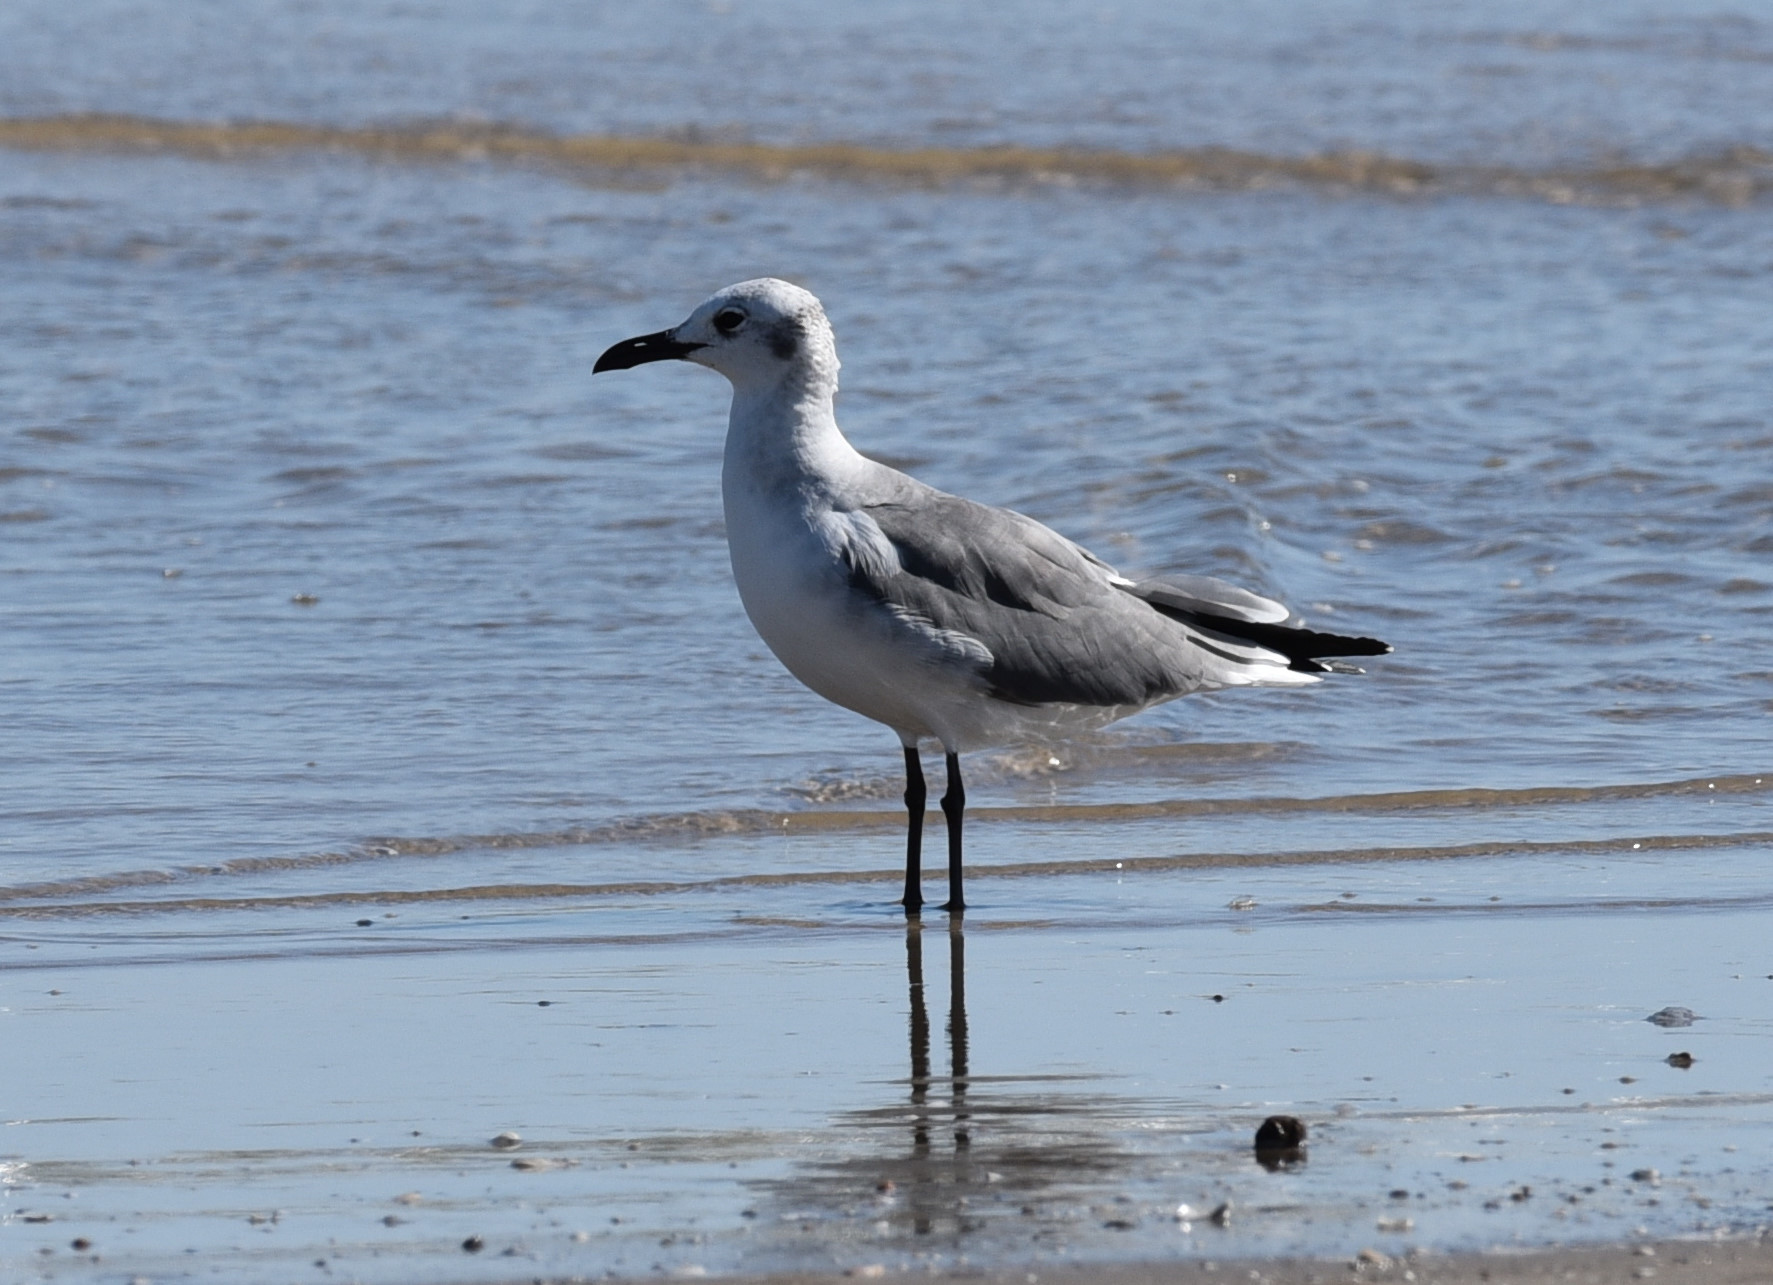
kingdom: Animalia
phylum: Chordata
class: Aves
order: Charadriiformes
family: Laridae
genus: Leucophaeus
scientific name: Leucophaeus atricilla
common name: Laughing gull
